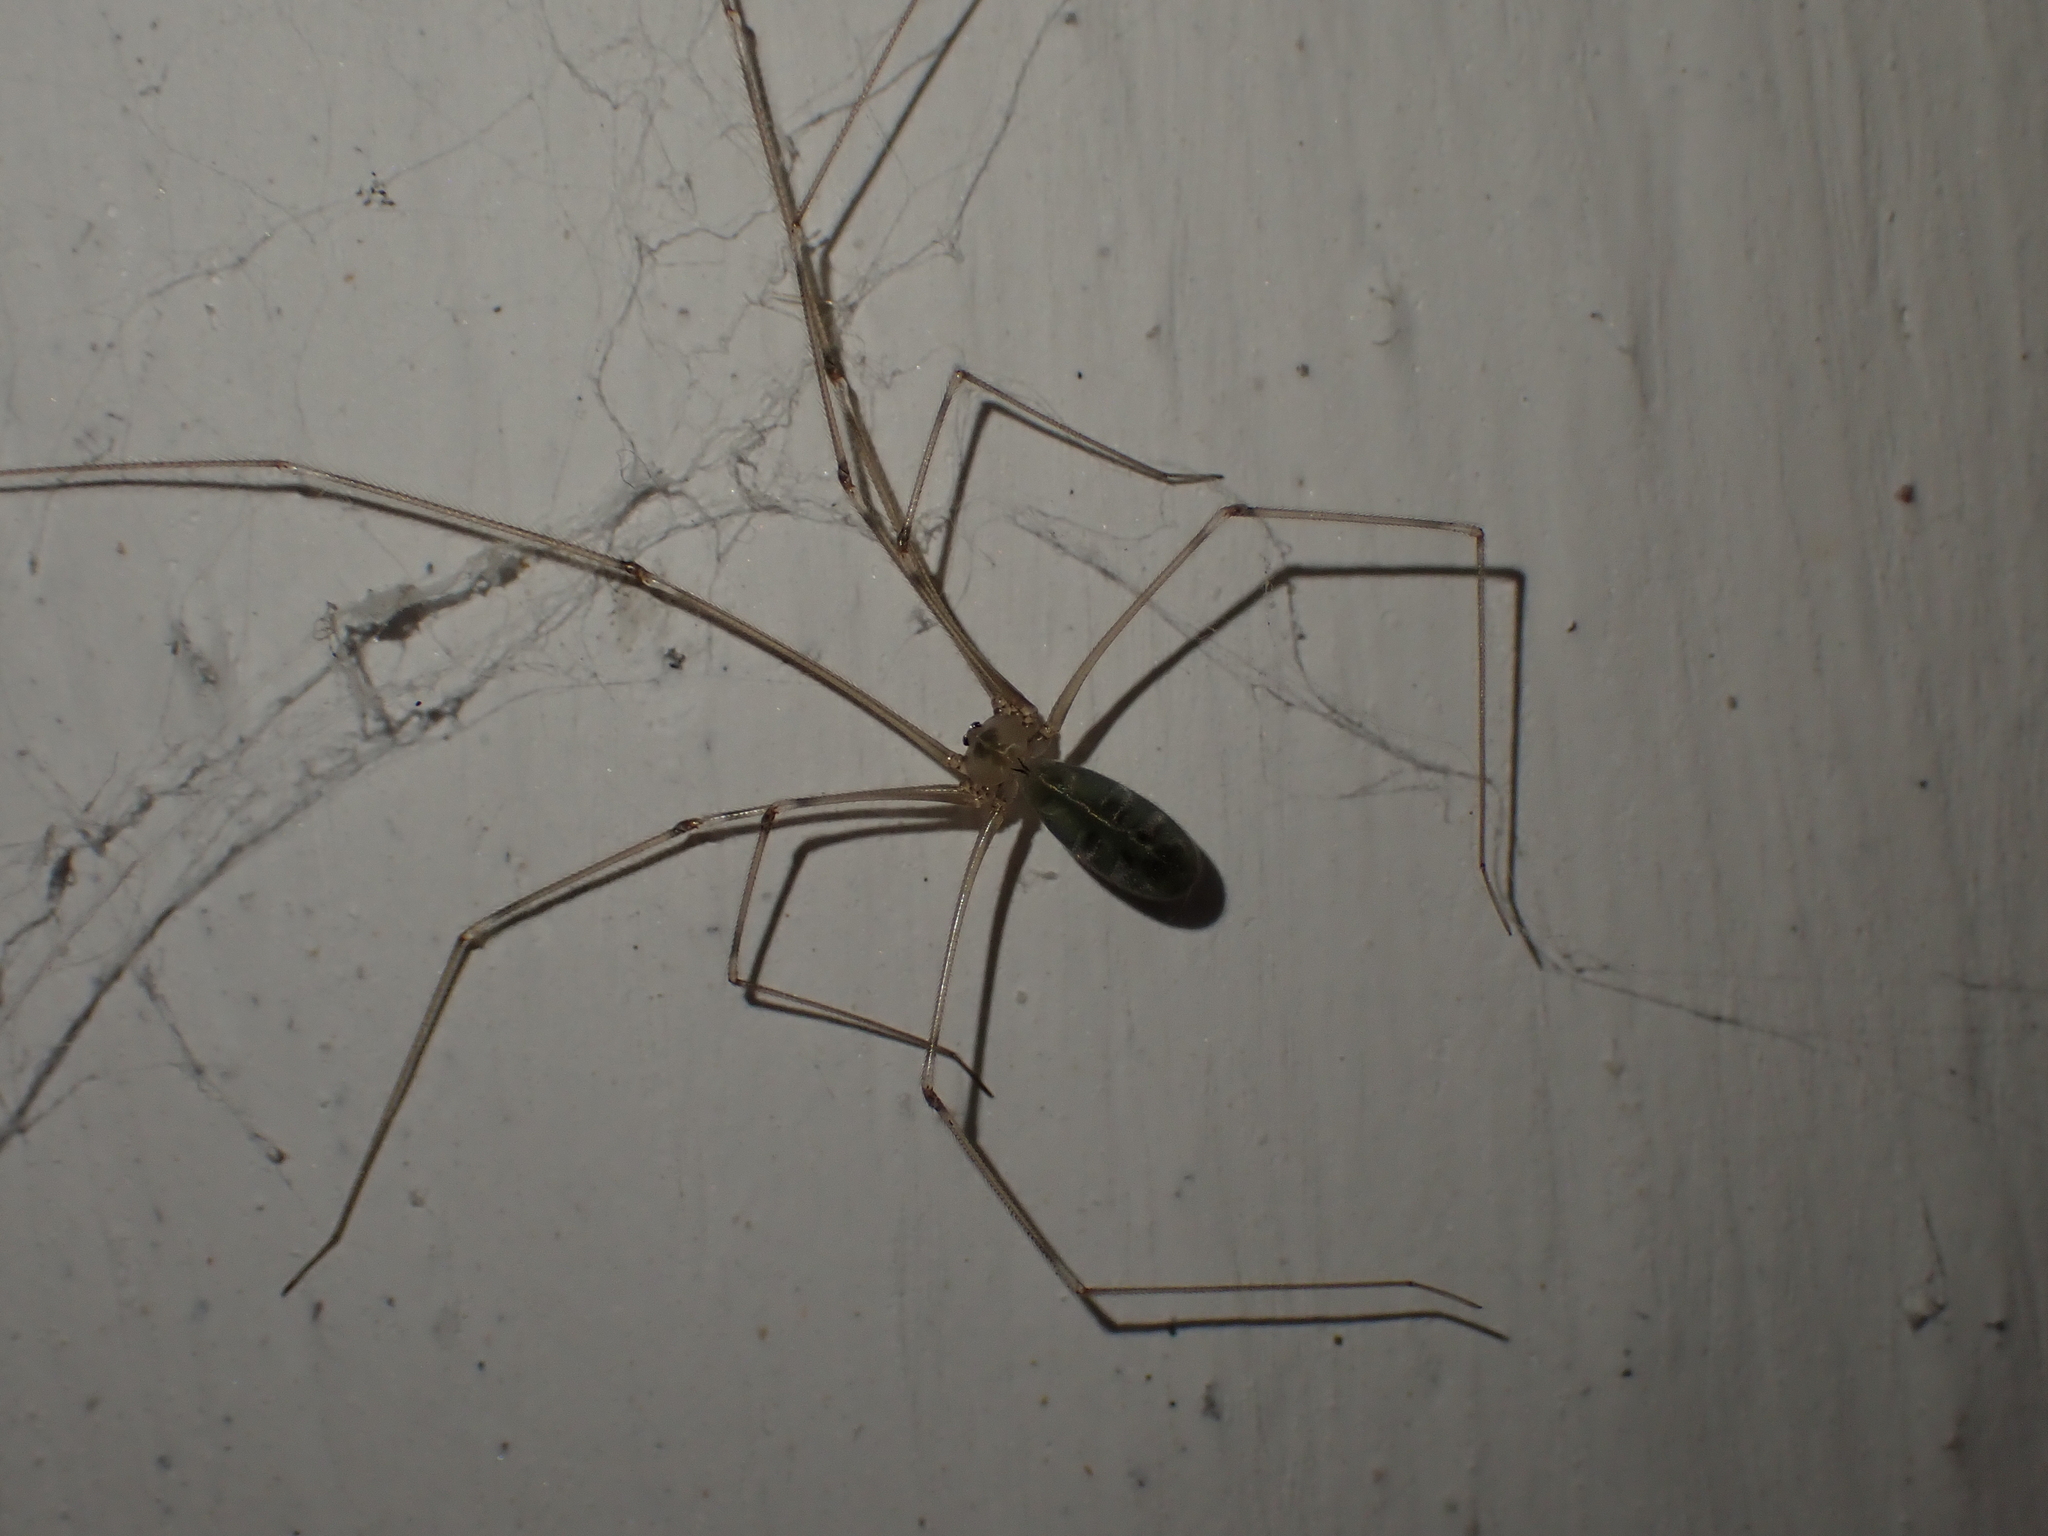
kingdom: Animalia
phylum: Arthropoda
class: Arachnida
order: Araneae
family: Pholcidae
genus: Pholcus
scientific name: Pholcus phalangioides
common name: Longbodied cellar spider
